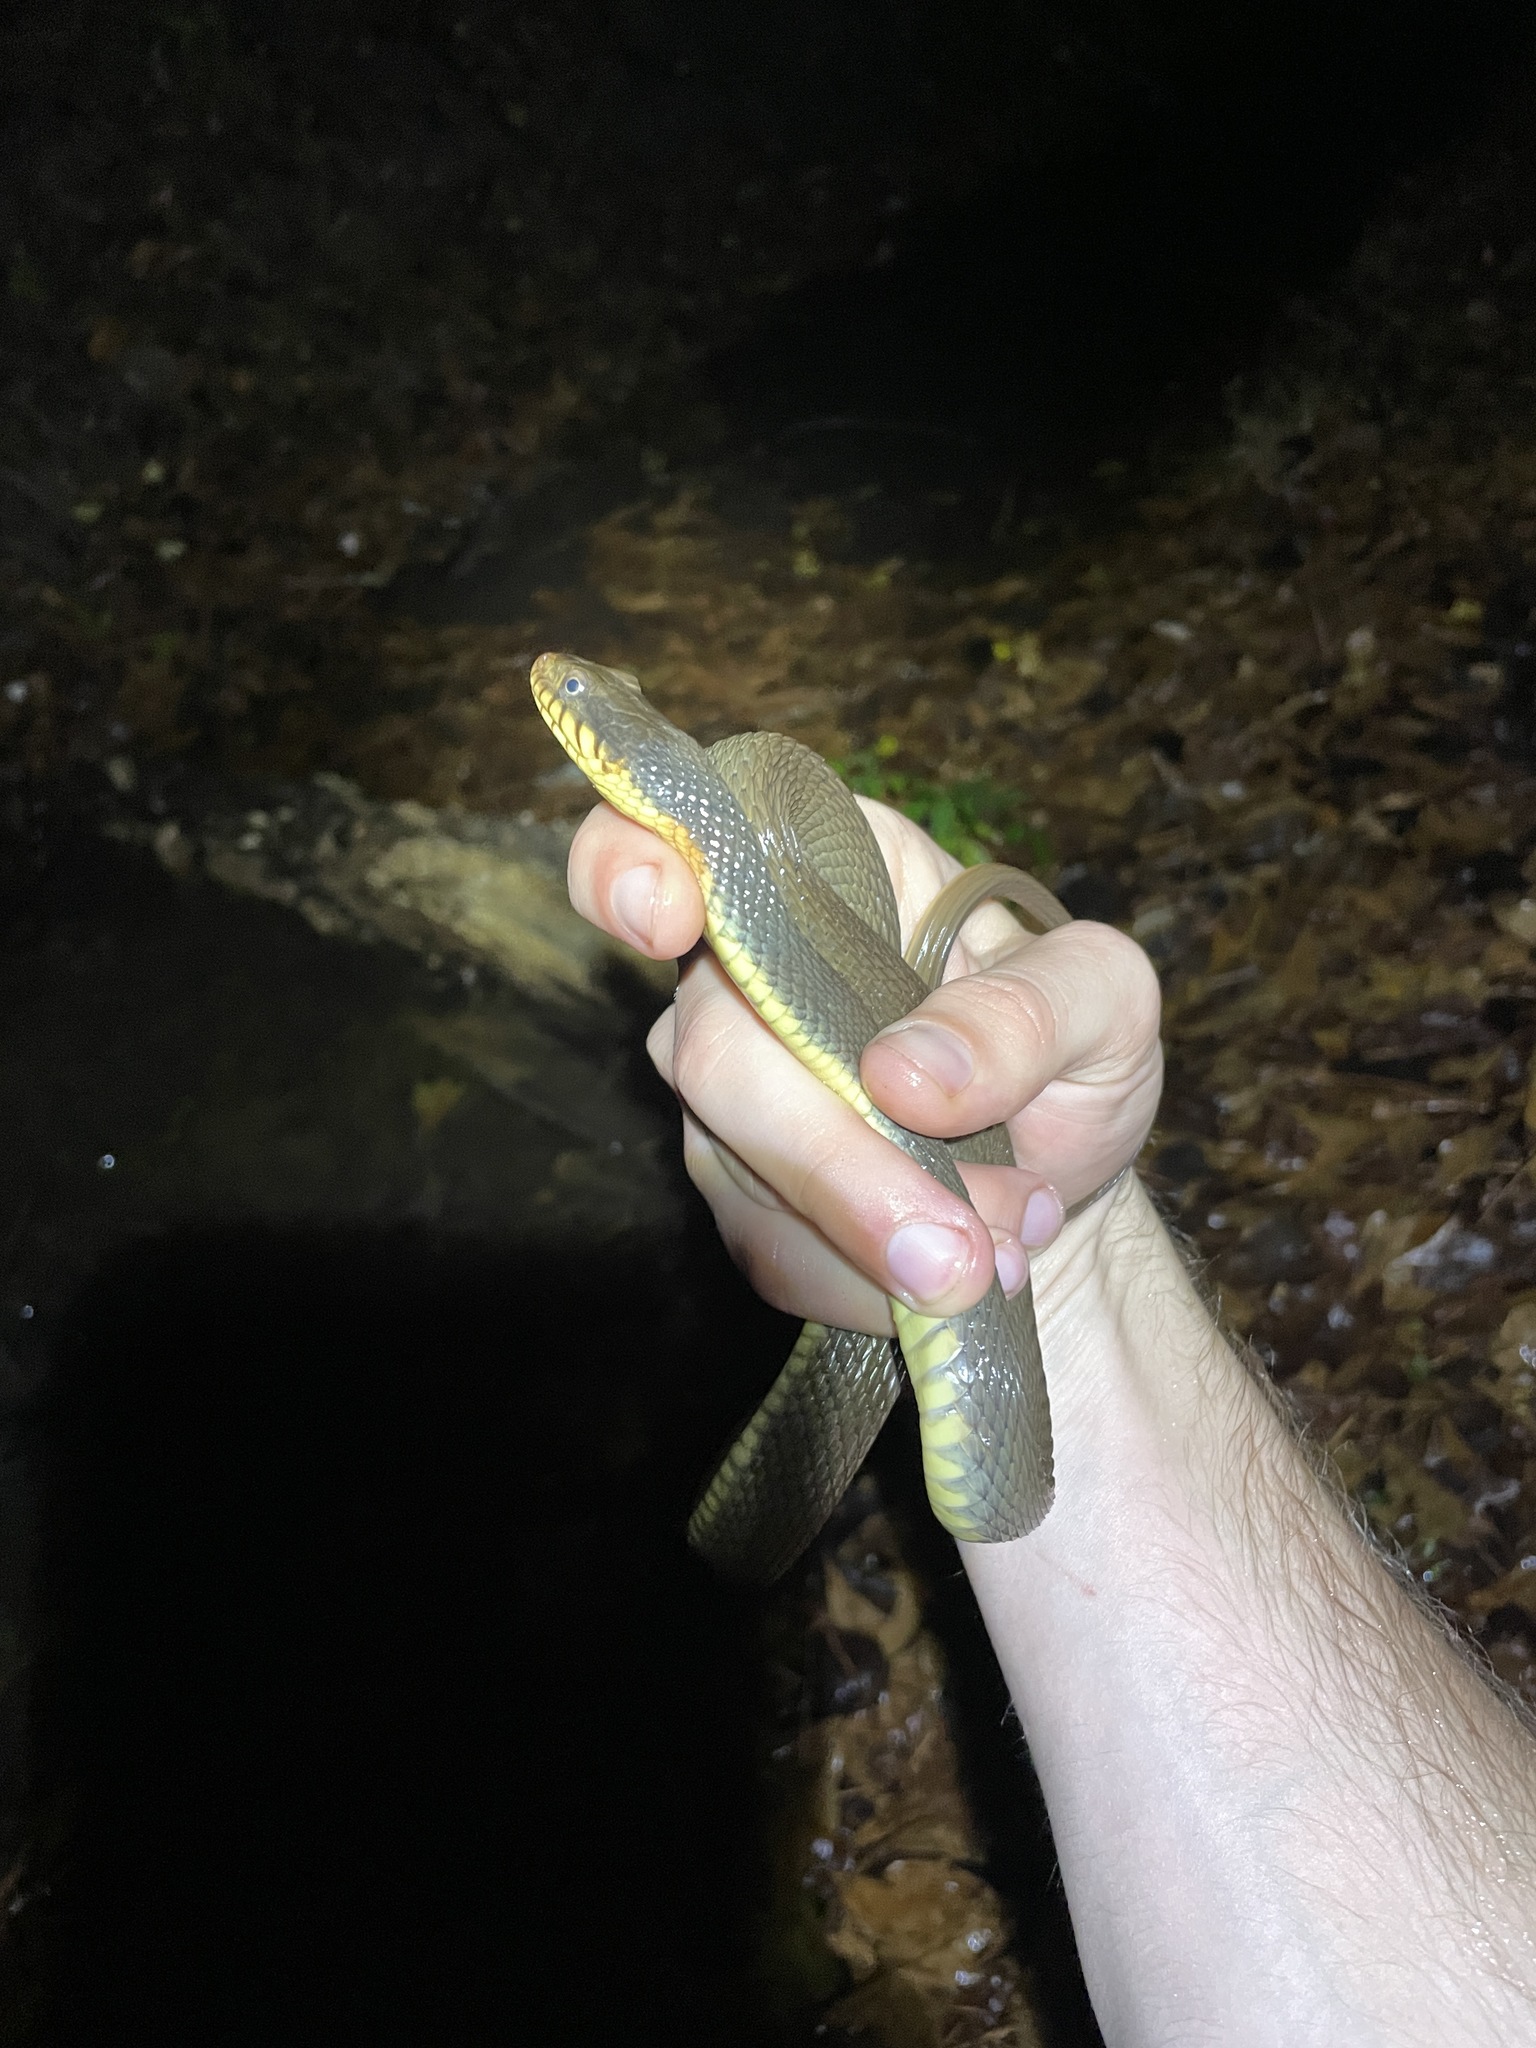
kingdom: Animalia
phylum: Chordata
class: Squamata
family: Colubridae
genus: Nerodia
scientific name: Nerodia erythrogaster
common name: Plainbelly water snake
